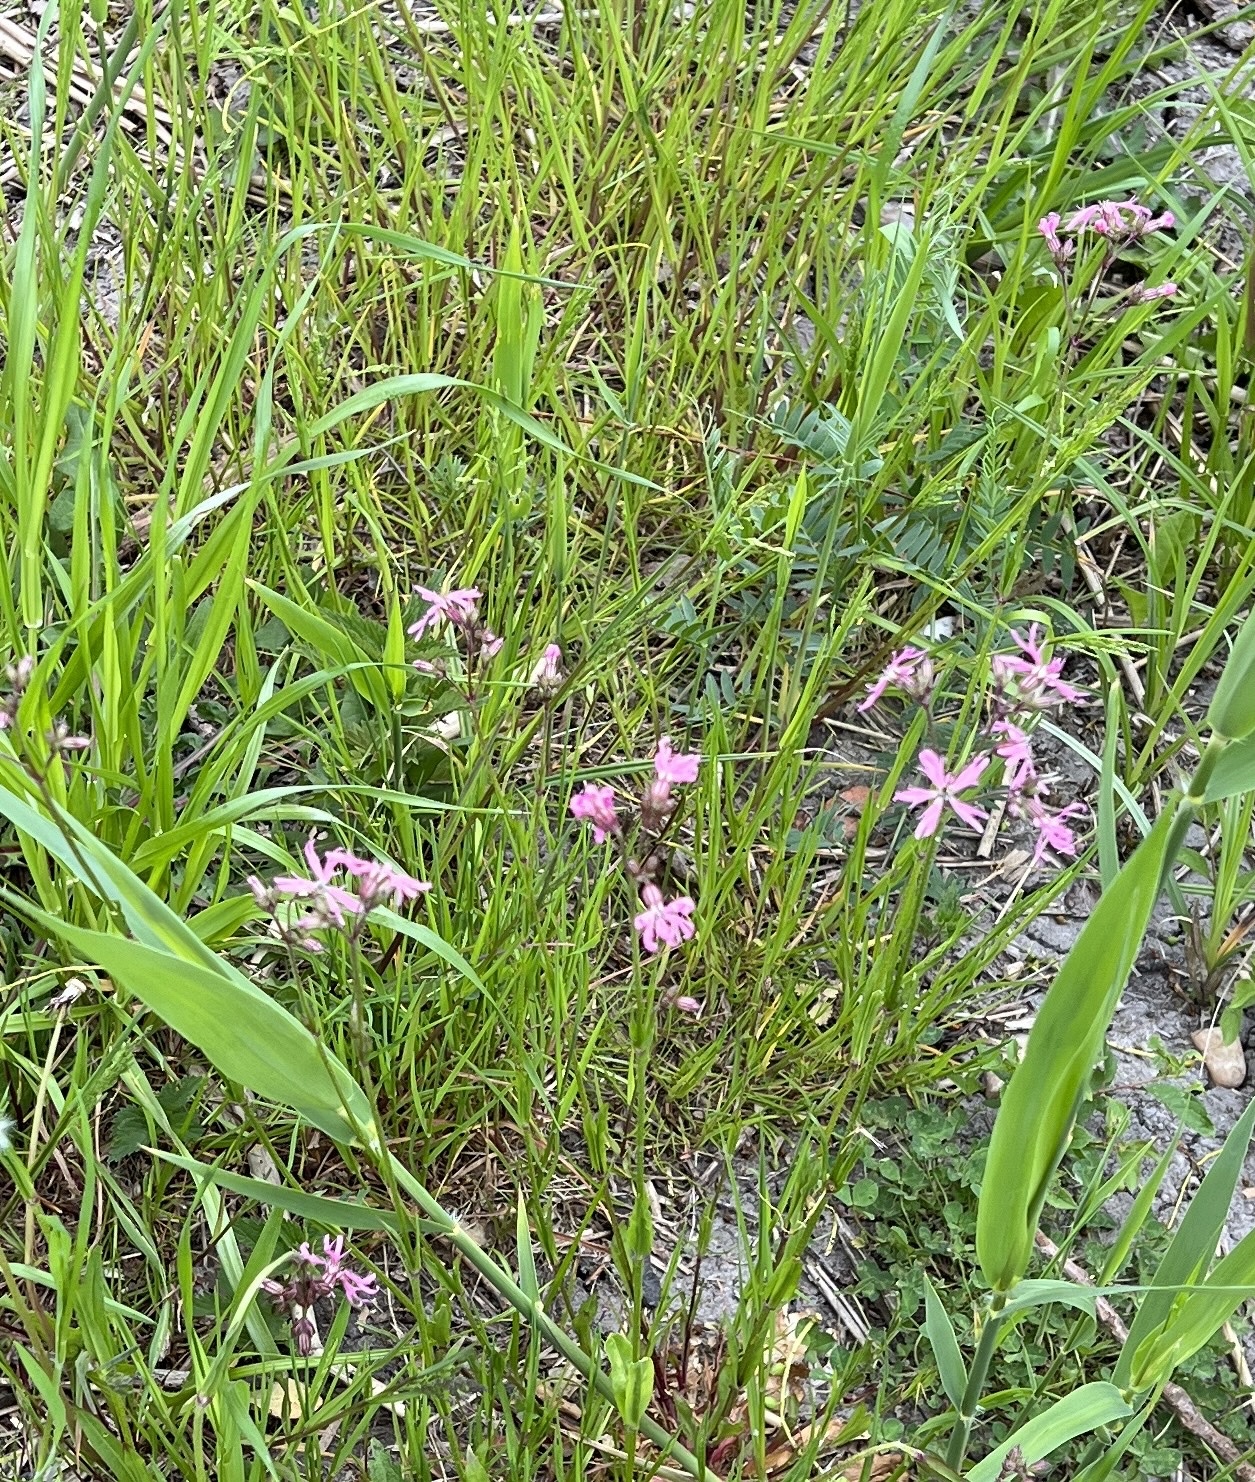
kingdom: Plantae
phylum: Tracheophyta
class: Magnoliopsida
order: Caryophyllales
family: Caryophyllaceae
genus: Silene
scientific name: Silene flos-cuculi
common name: Ragged-robin
